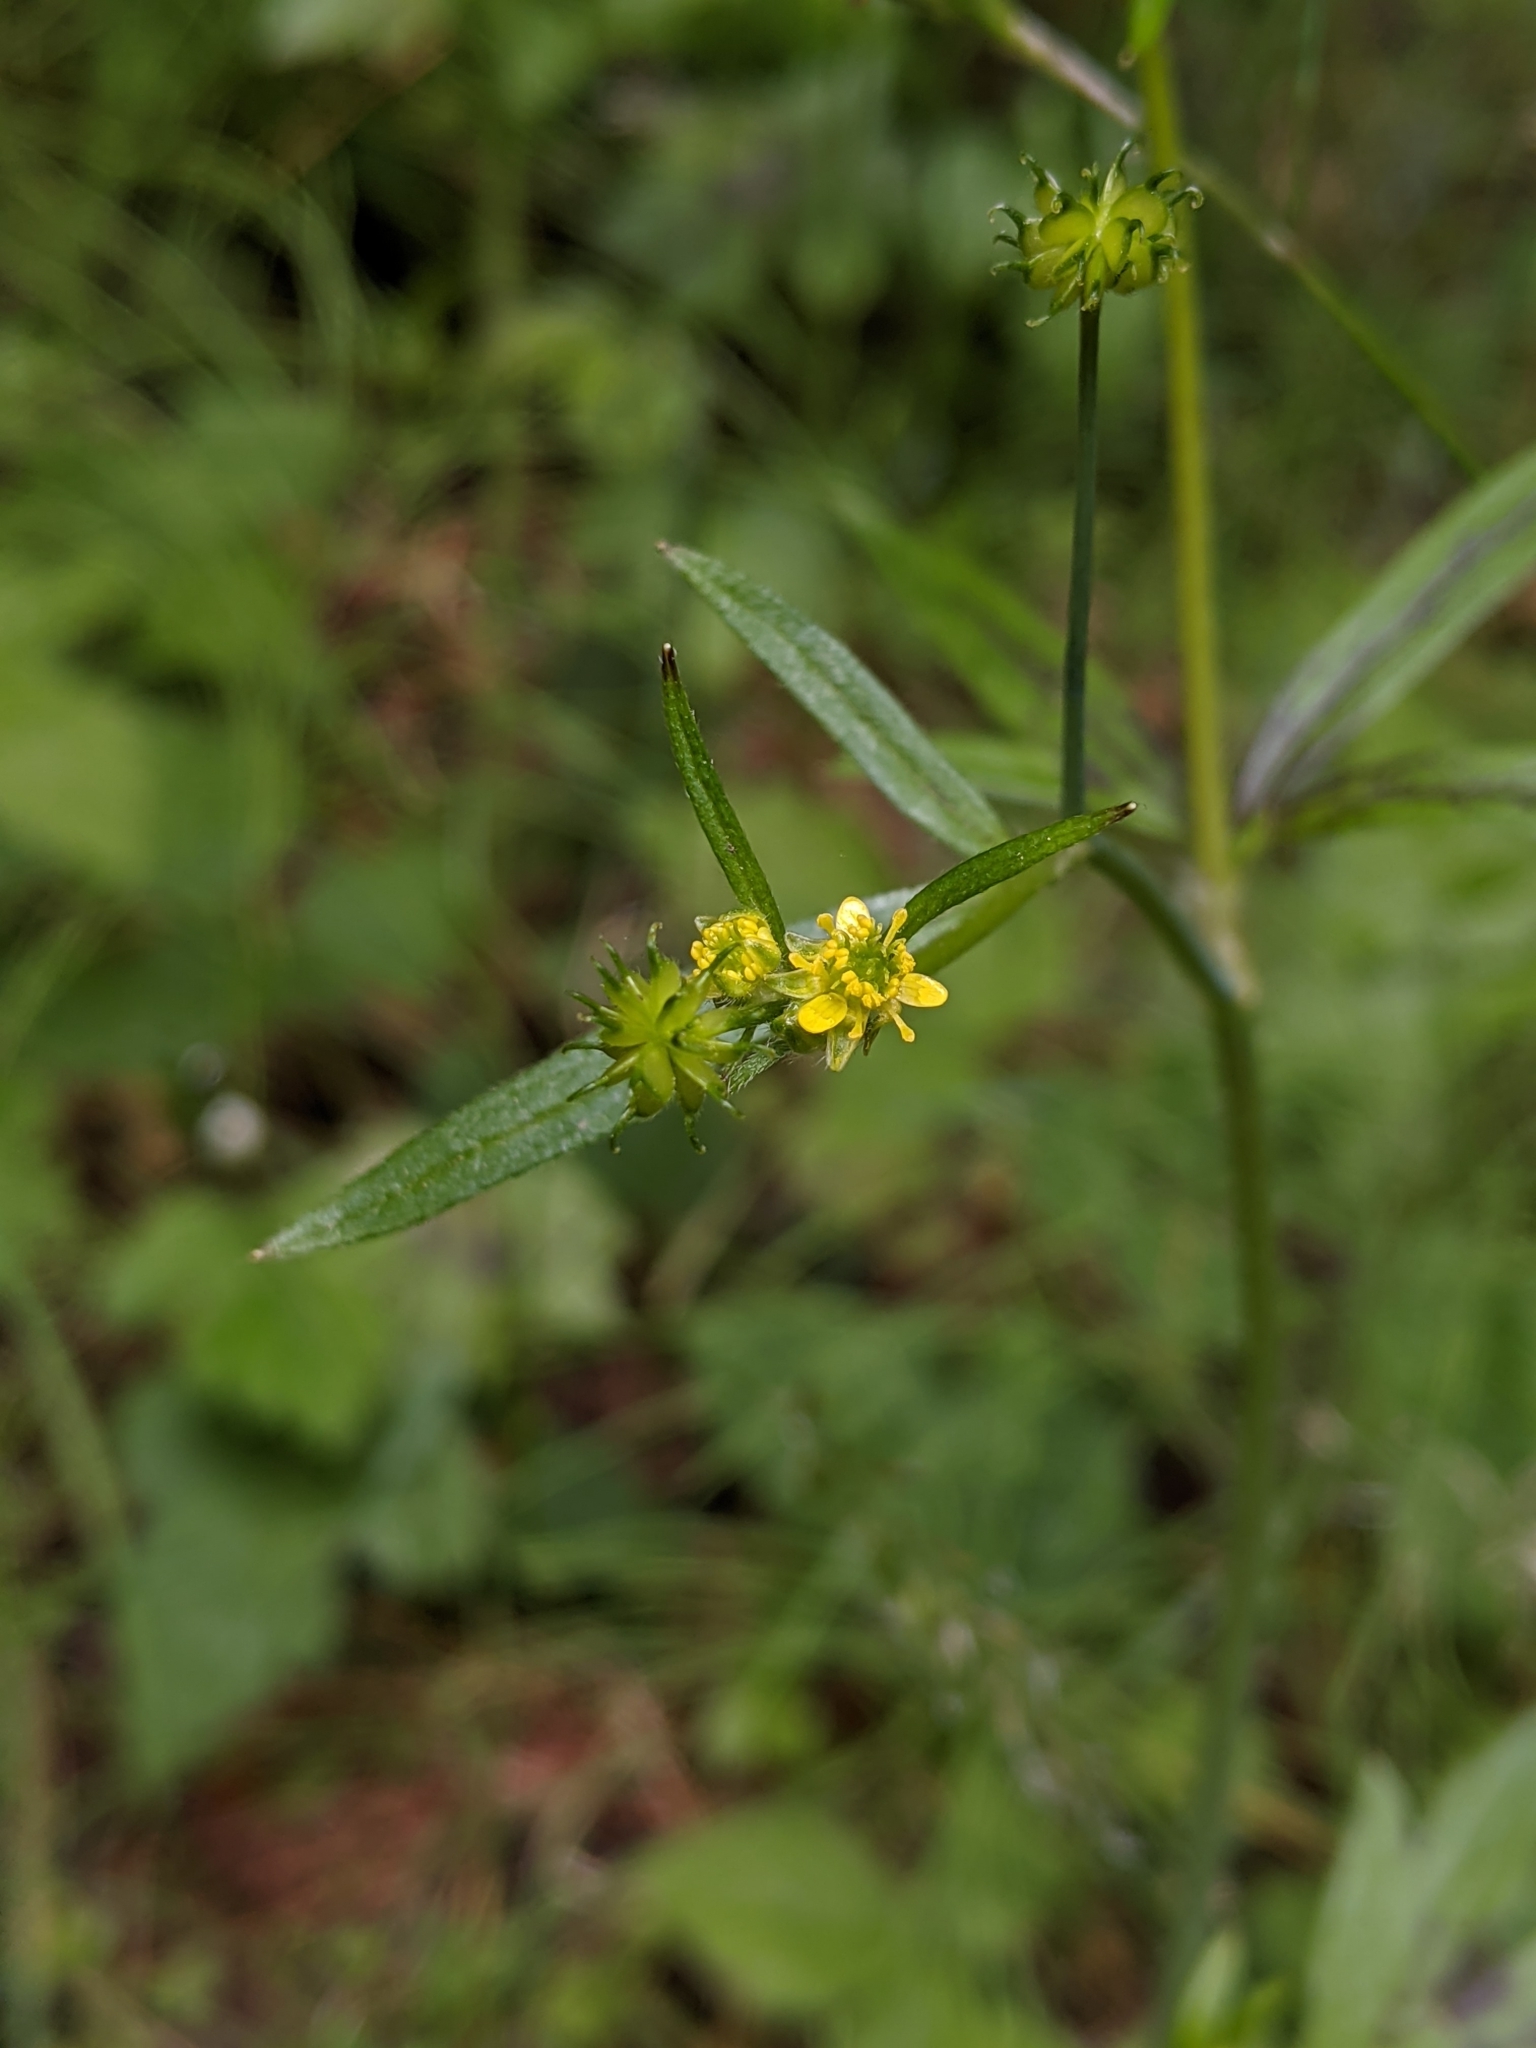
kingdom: Plantae
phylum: Tracheophyta
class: Magnoliopsida
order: Ranunculales
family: Ranunculaceae
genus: Ranunculus
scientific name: Ranunculus uncinatus
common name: Little buttercup
